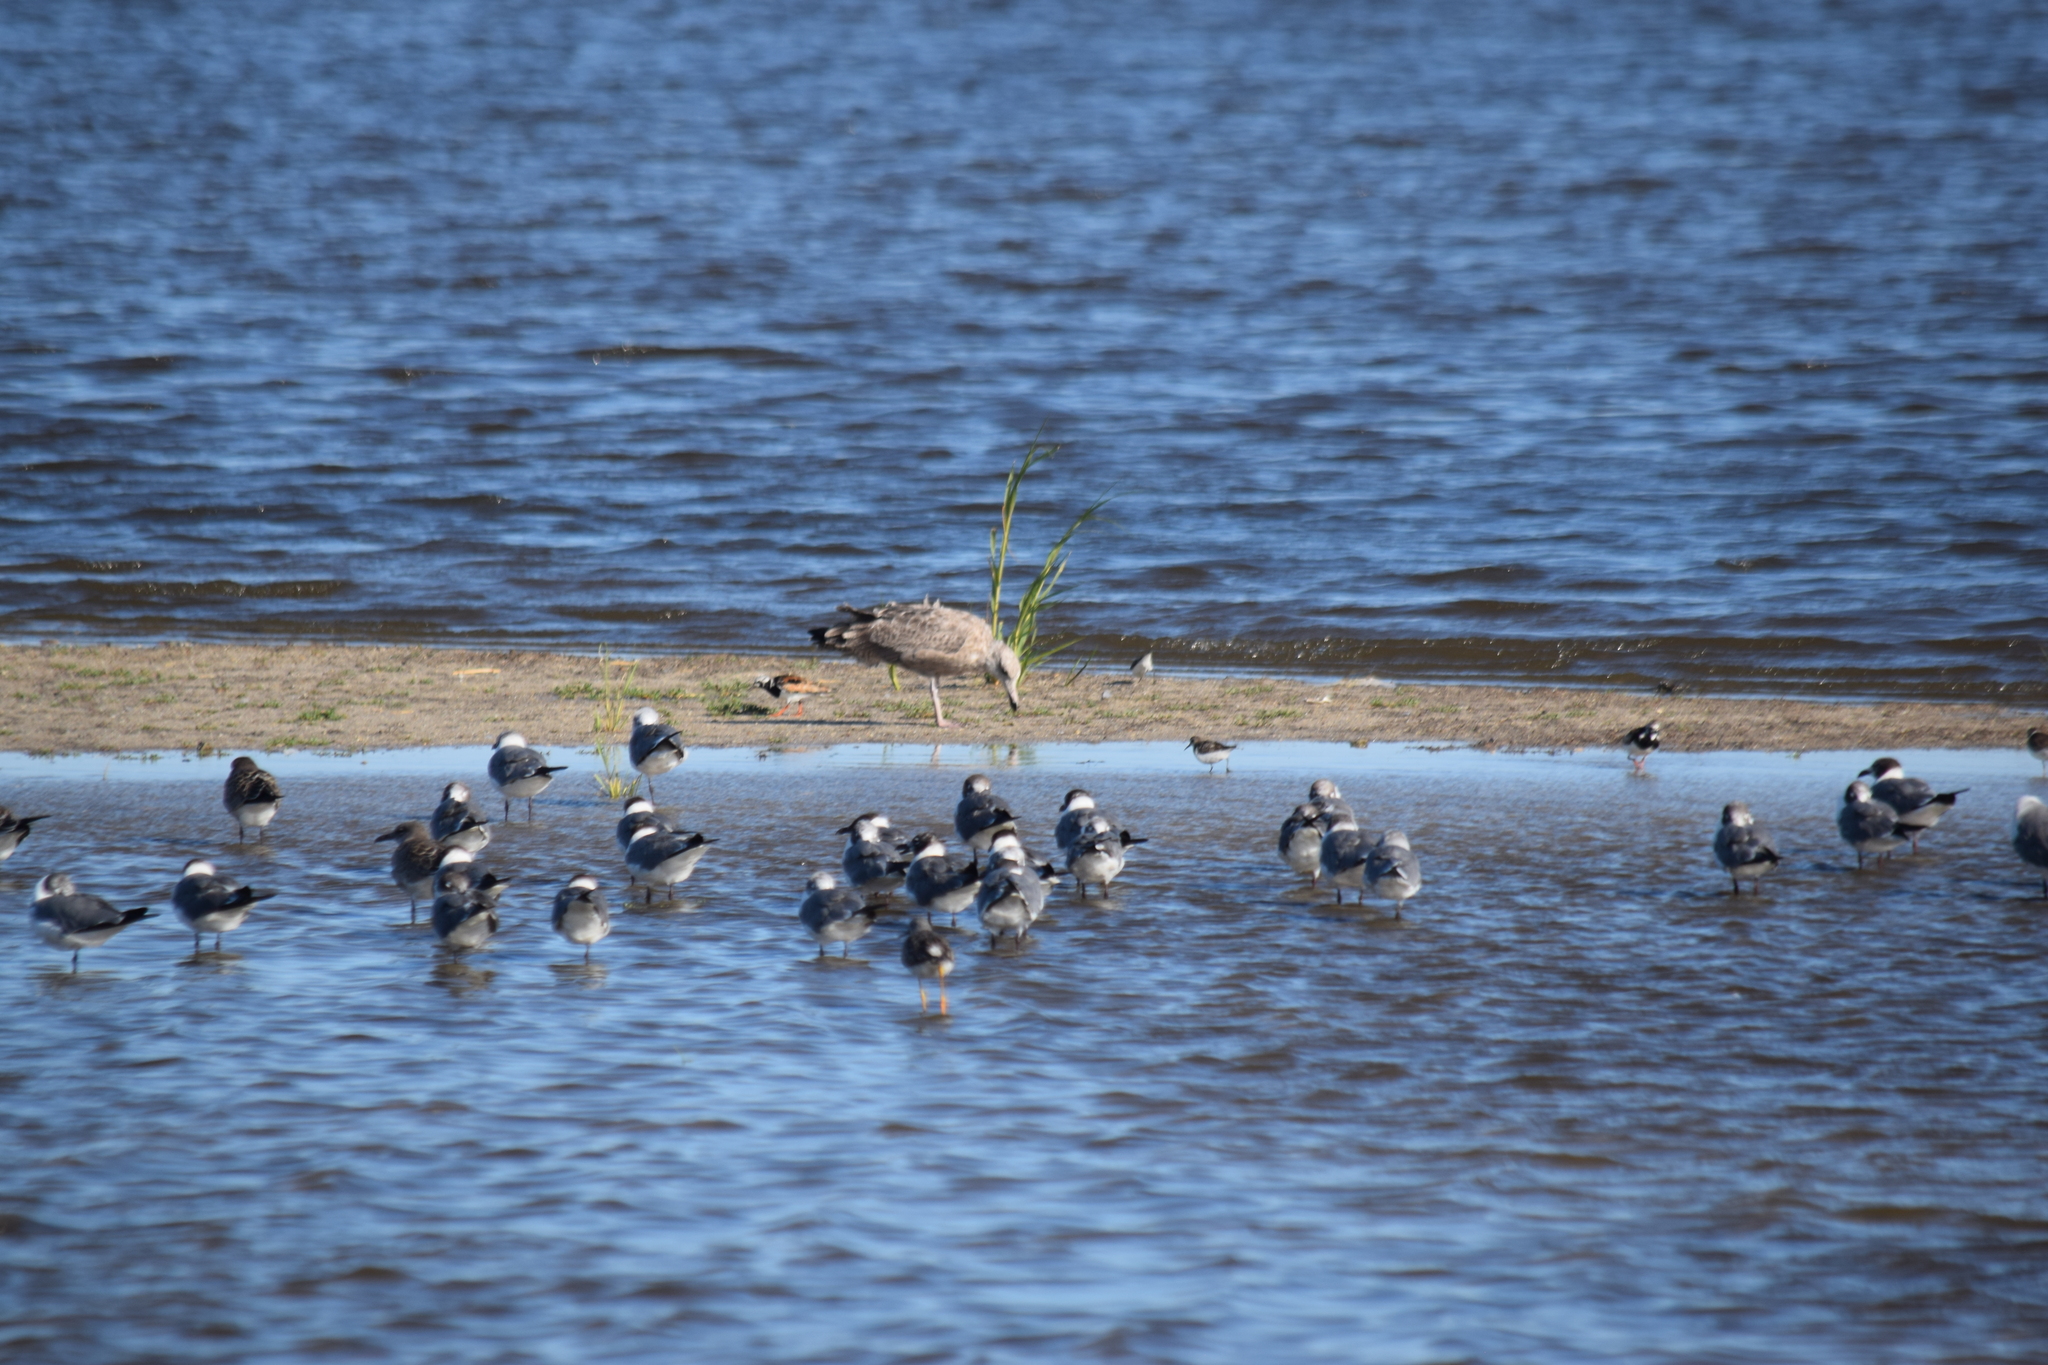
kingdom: Animalia
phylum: Chordata
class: Aves
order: Charadriiformes
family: Scolopacidae
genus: Arenaria
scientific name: Arenaria interpres
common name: Ruddy turnstone
